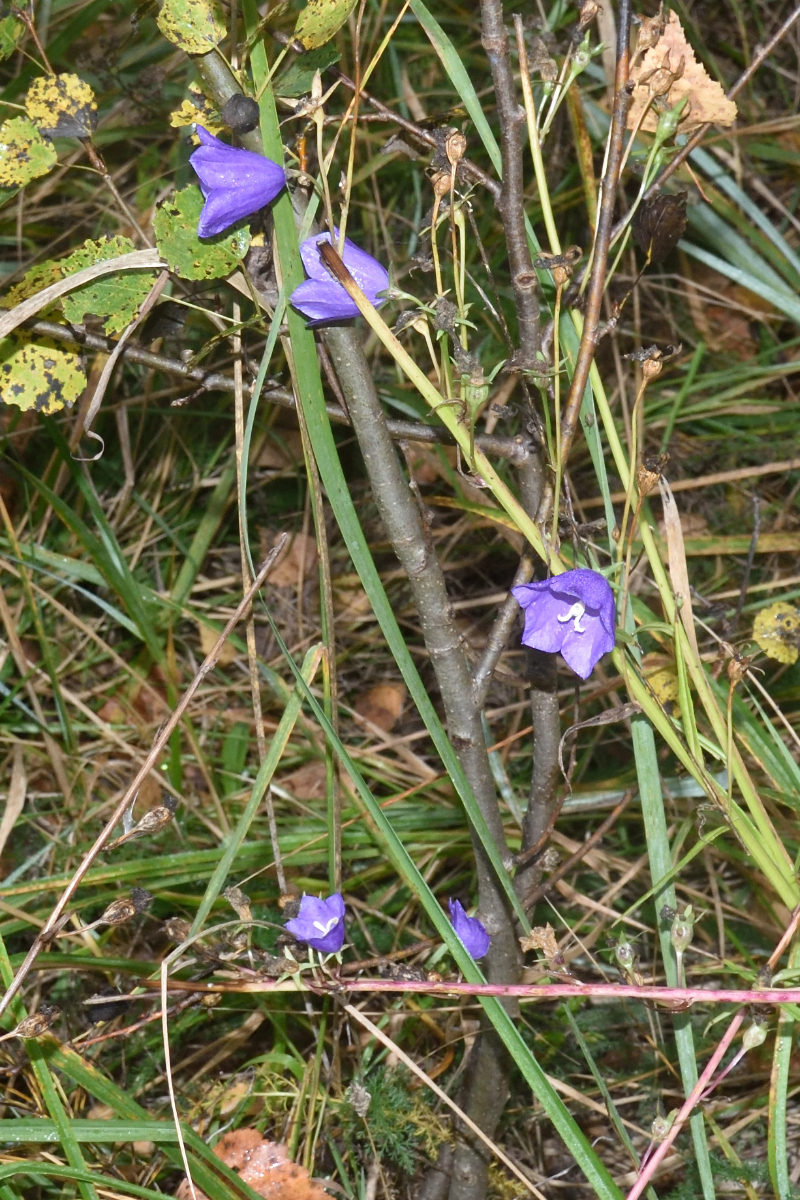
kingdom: Plantae
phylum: Tracheophyta
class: Magnoliopsida
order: Asterales
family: Campanulaceae
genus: Campanula
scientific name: Campanula persicifolia
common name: Peach-leaved bellflower
